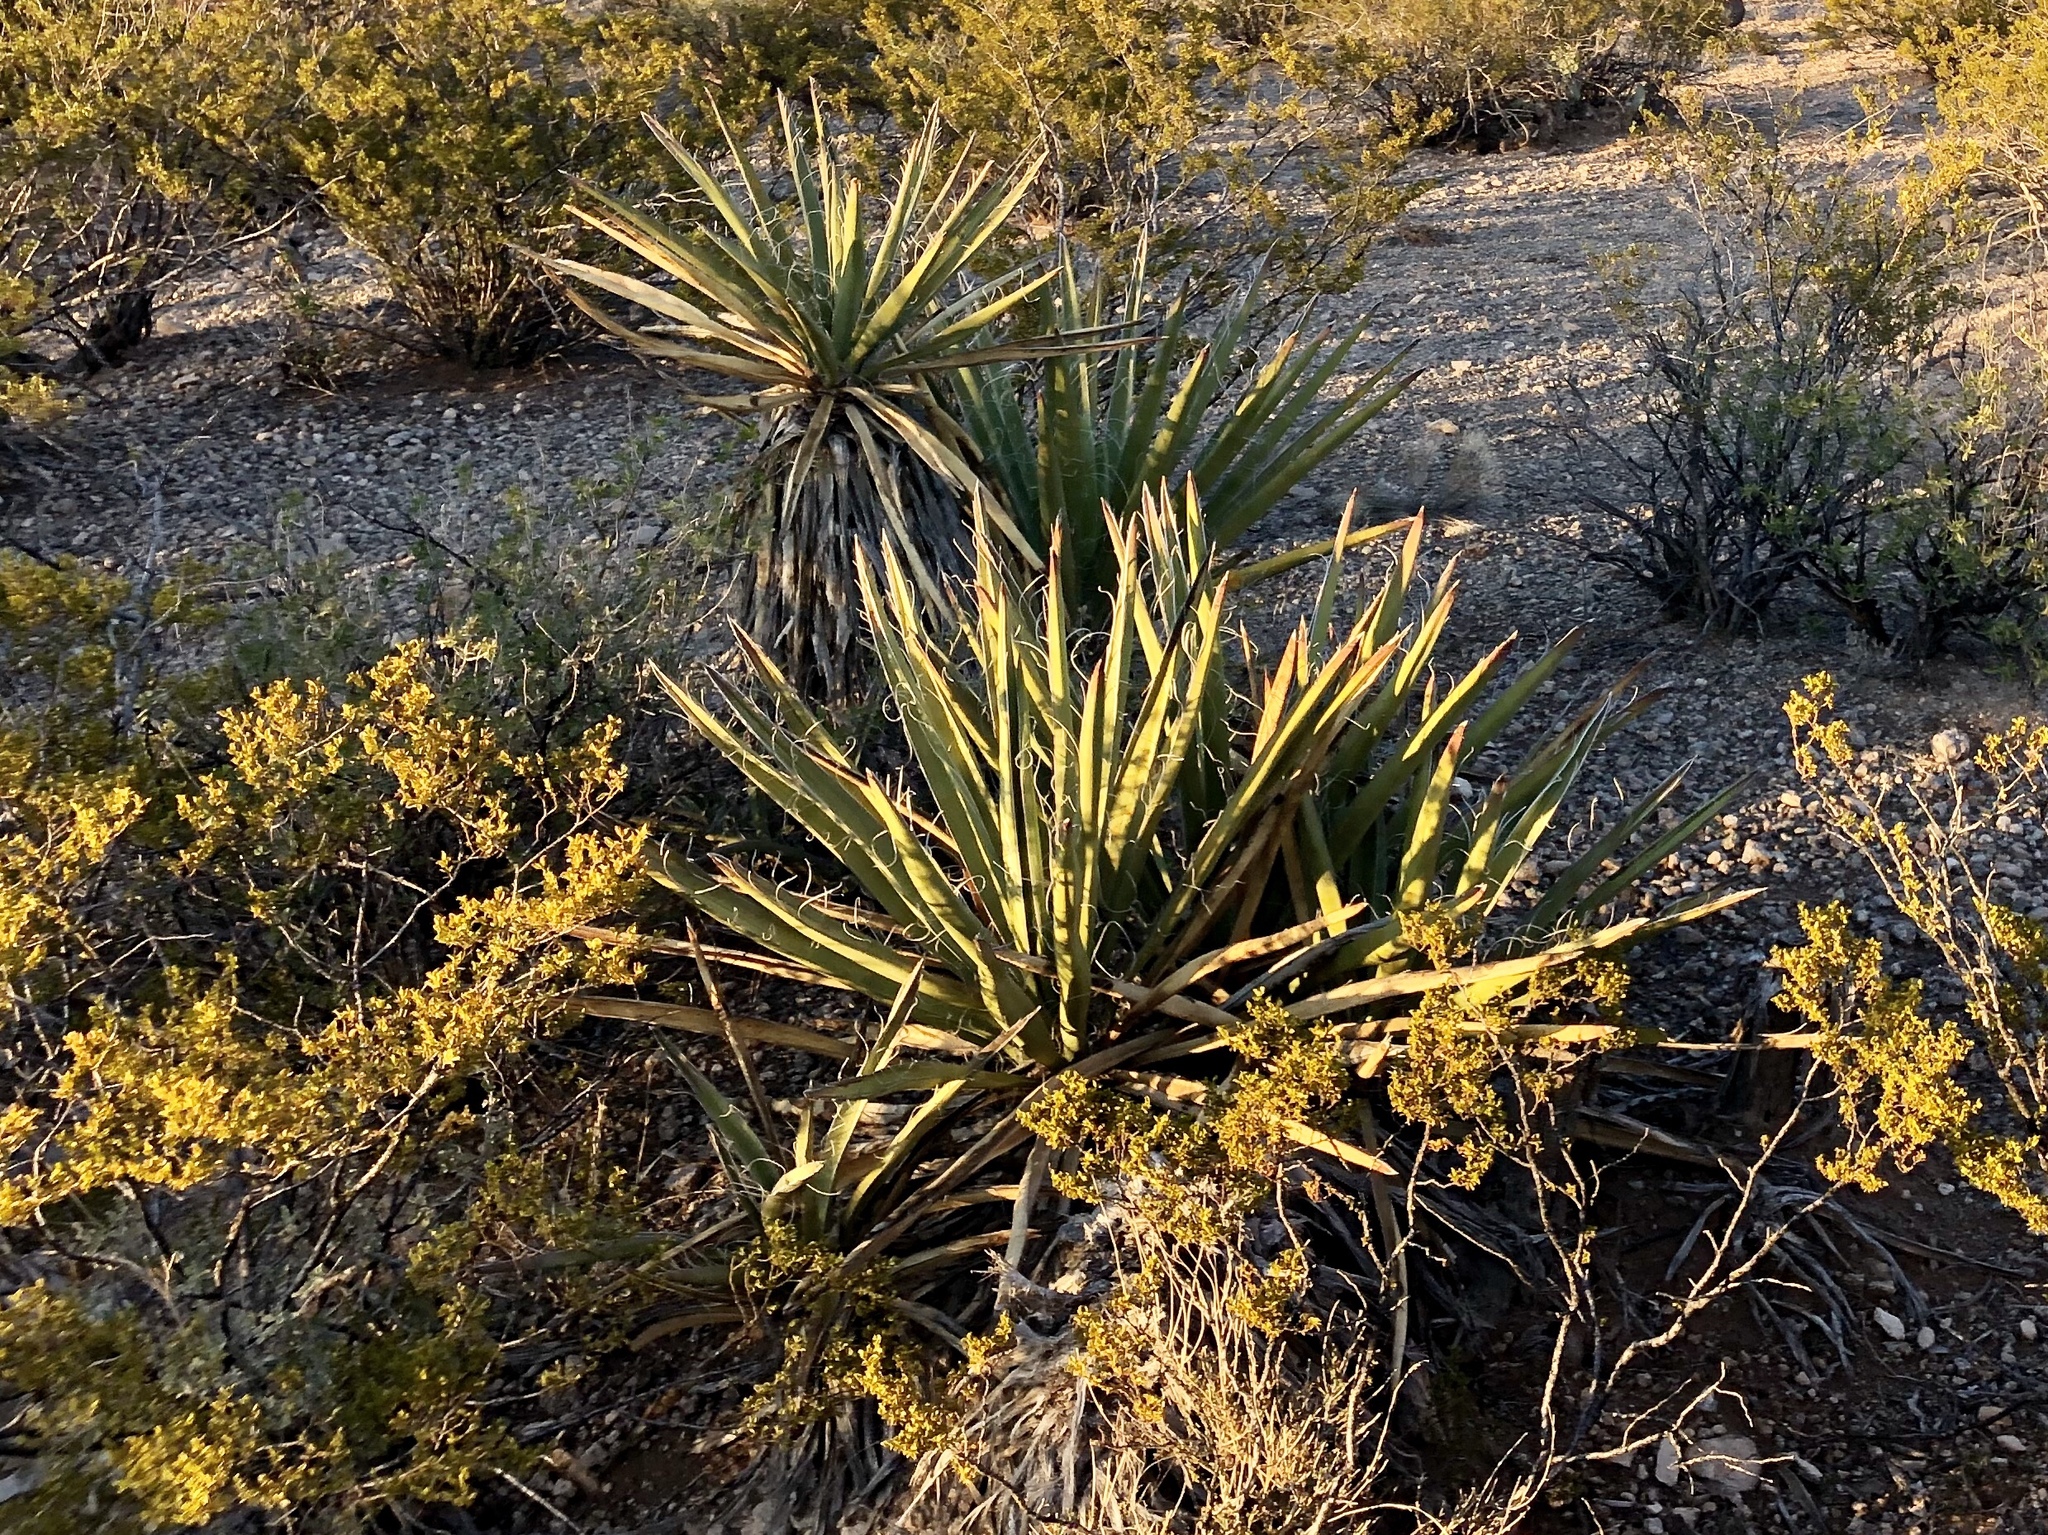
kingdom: Plantae
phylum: Tracheophyta
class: Liliopsida
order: Asparagales
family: Asparagaceae
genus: Yucca
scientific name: Yucca baccata
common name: Banana yucca
